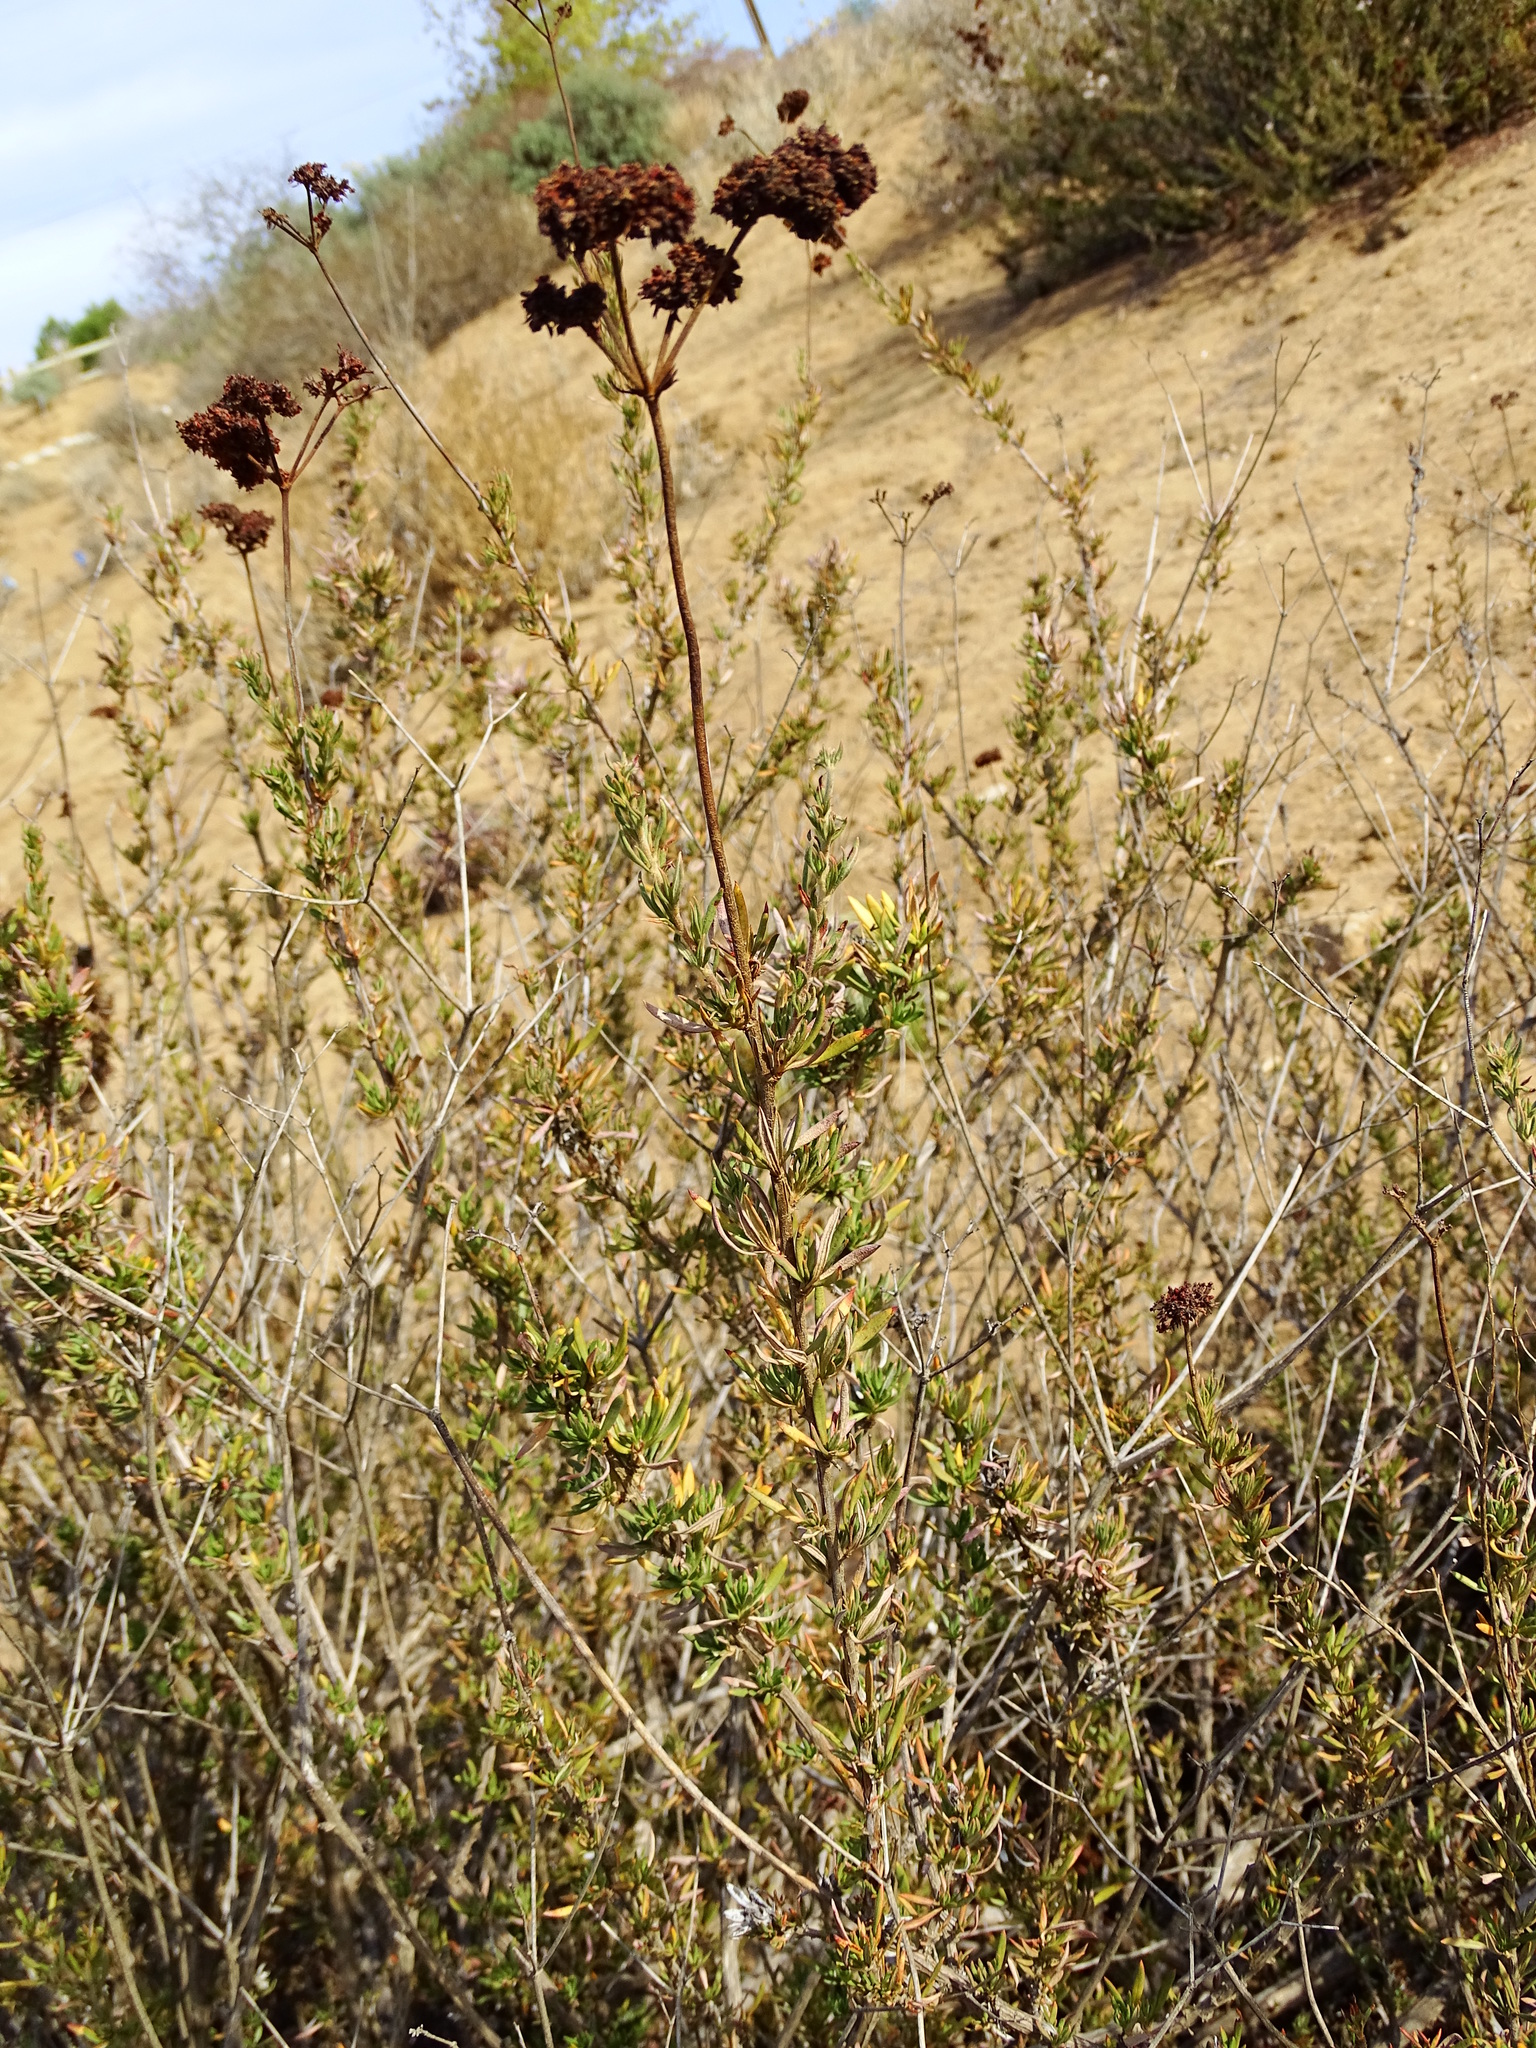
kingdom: Plantae
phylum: Tracheophyta
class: Magnoliopsida
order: Caryophyllales
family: Polygonaceae
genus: Eriogonum
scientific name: Eriogonum fasciculatum
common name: California wild buckwheat
